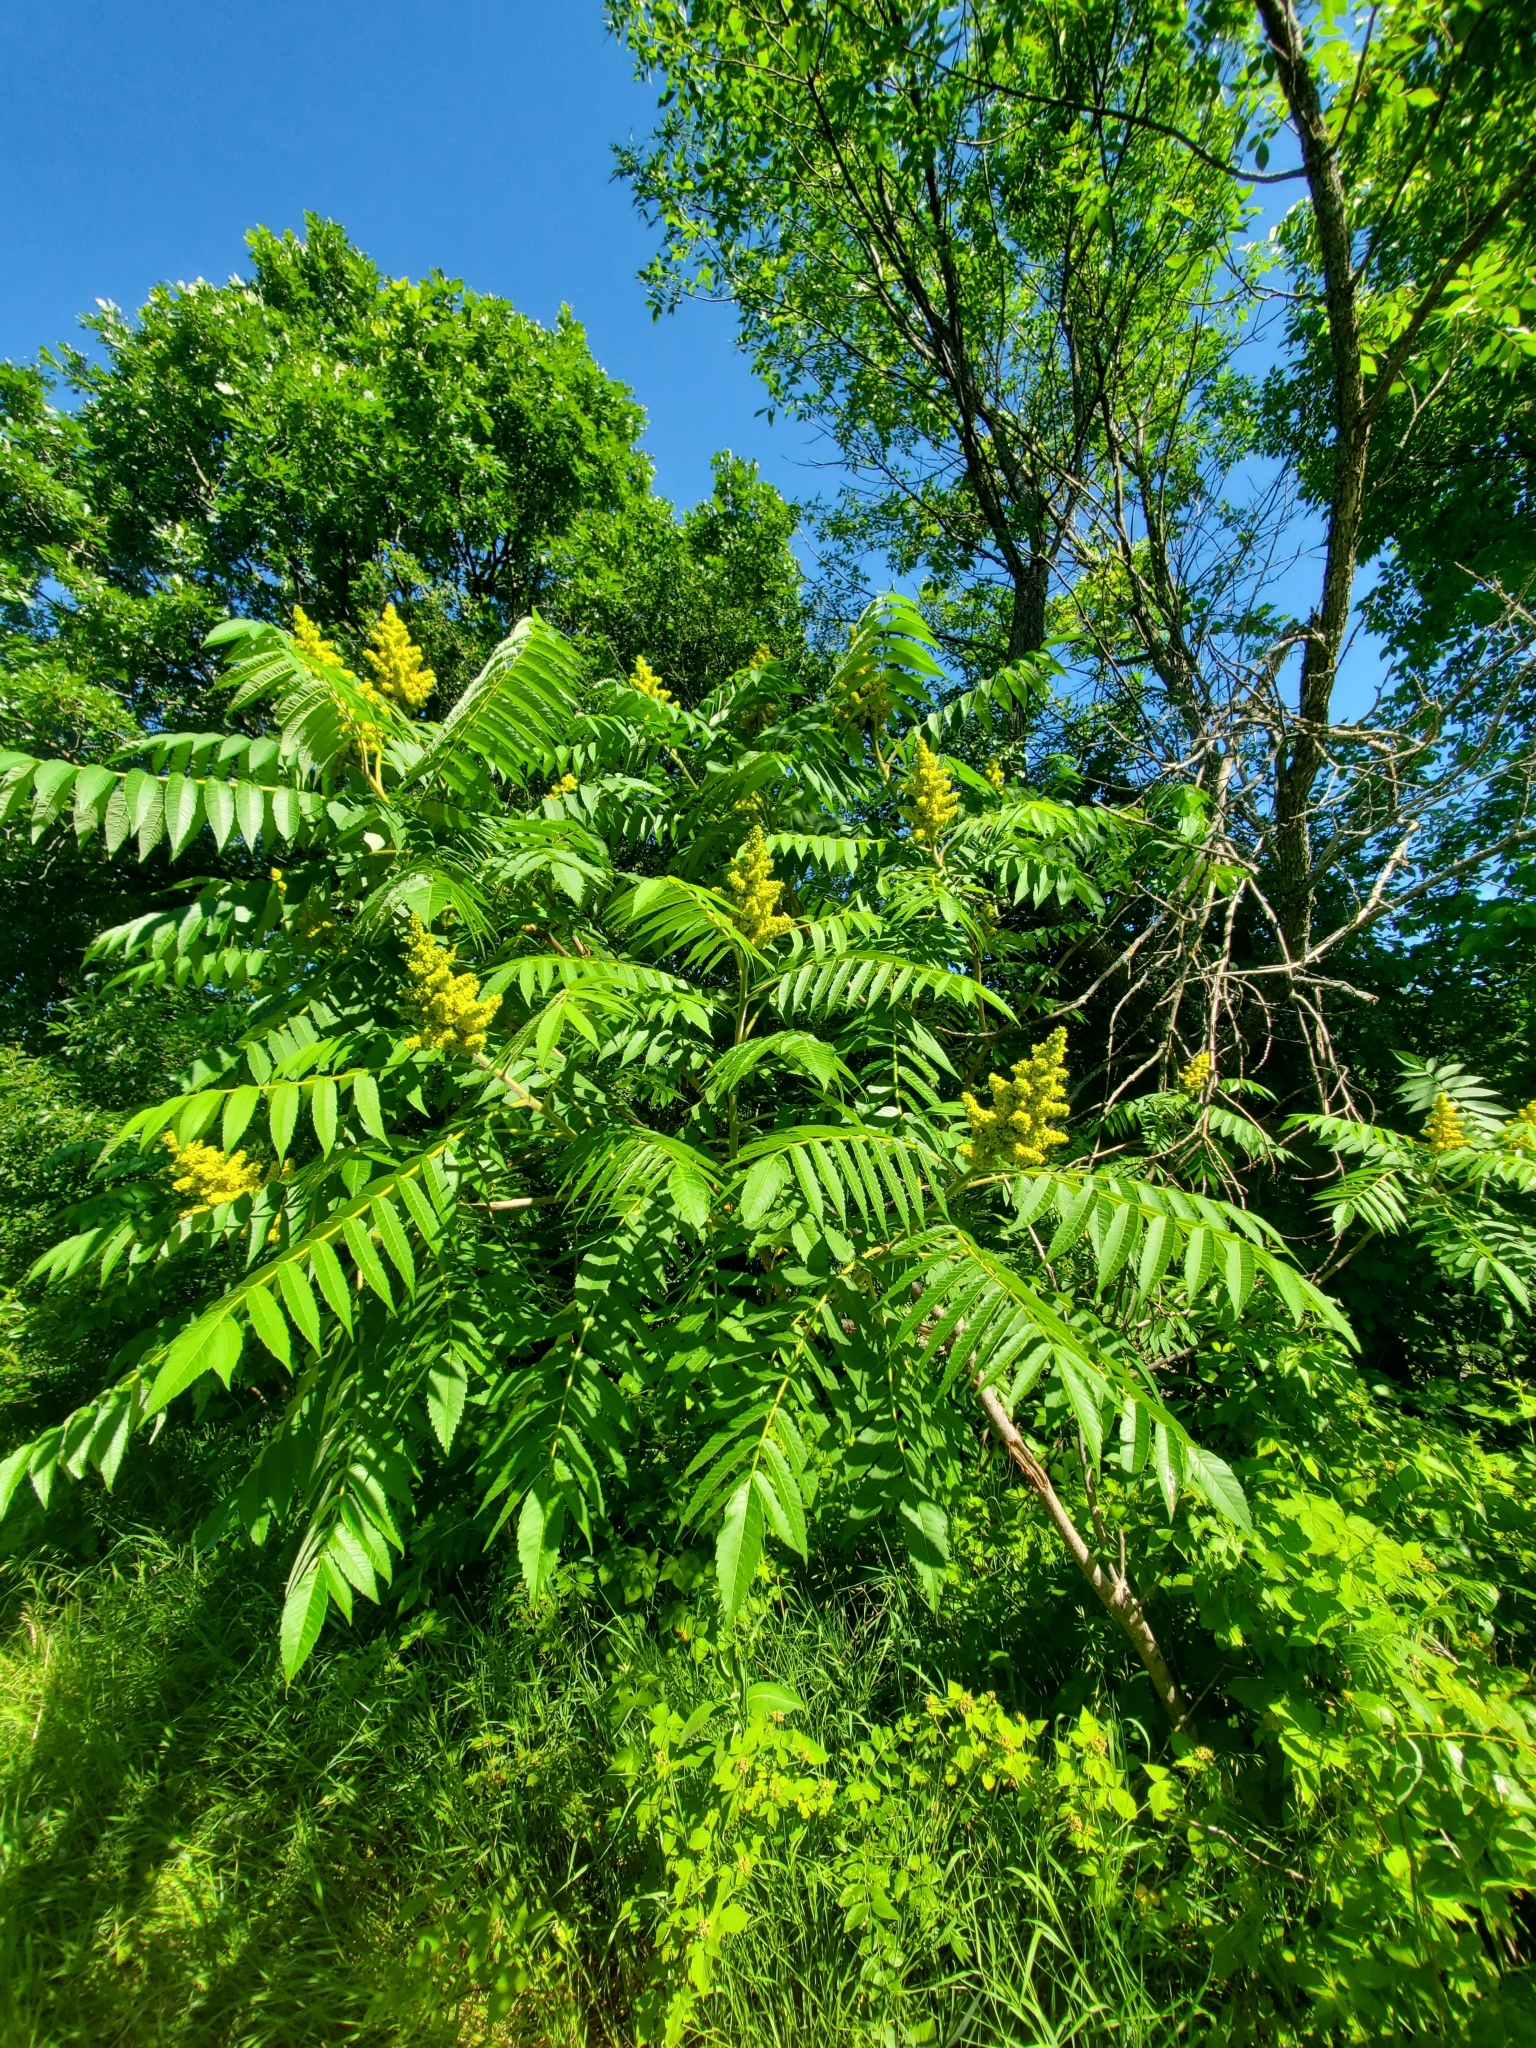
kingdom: Plantae
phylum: Tracheophyta
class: Magnoliopsida
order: Sapindales
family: Anacardiaceae
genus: Rhus
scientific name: Rhus typhina
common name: Staghorn sumac
